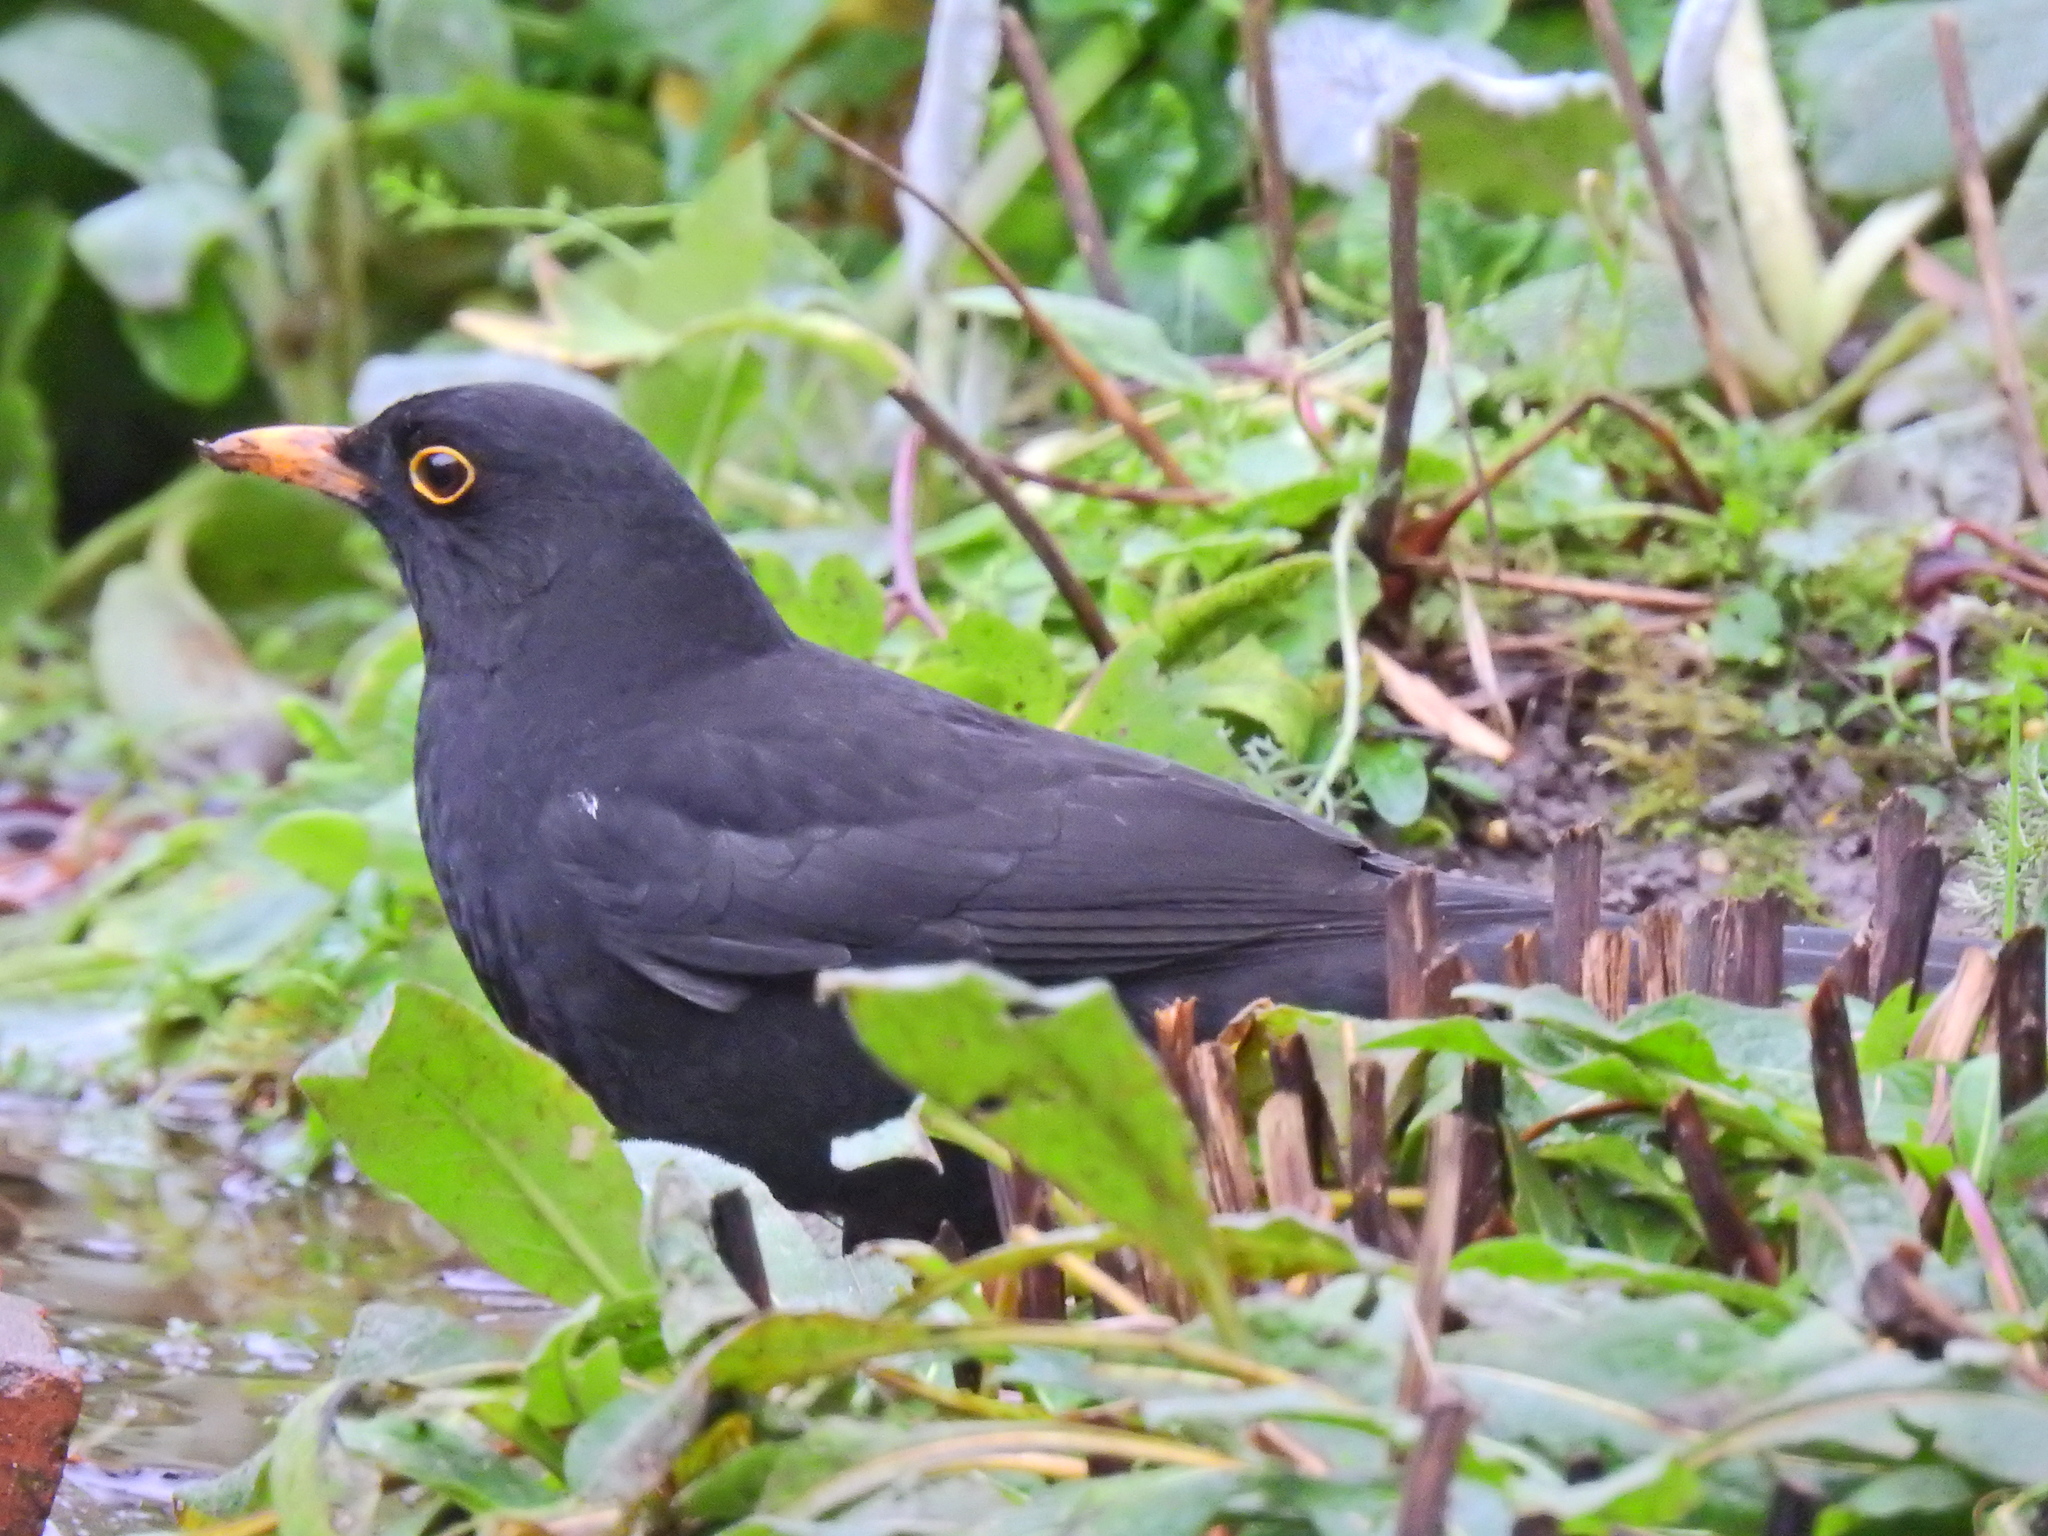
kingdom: Animalia
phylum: Chordata
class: Aves
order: Passeriformes
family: Turdidae
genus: Turdus
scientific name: Turdus merula
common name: Common blackbird
